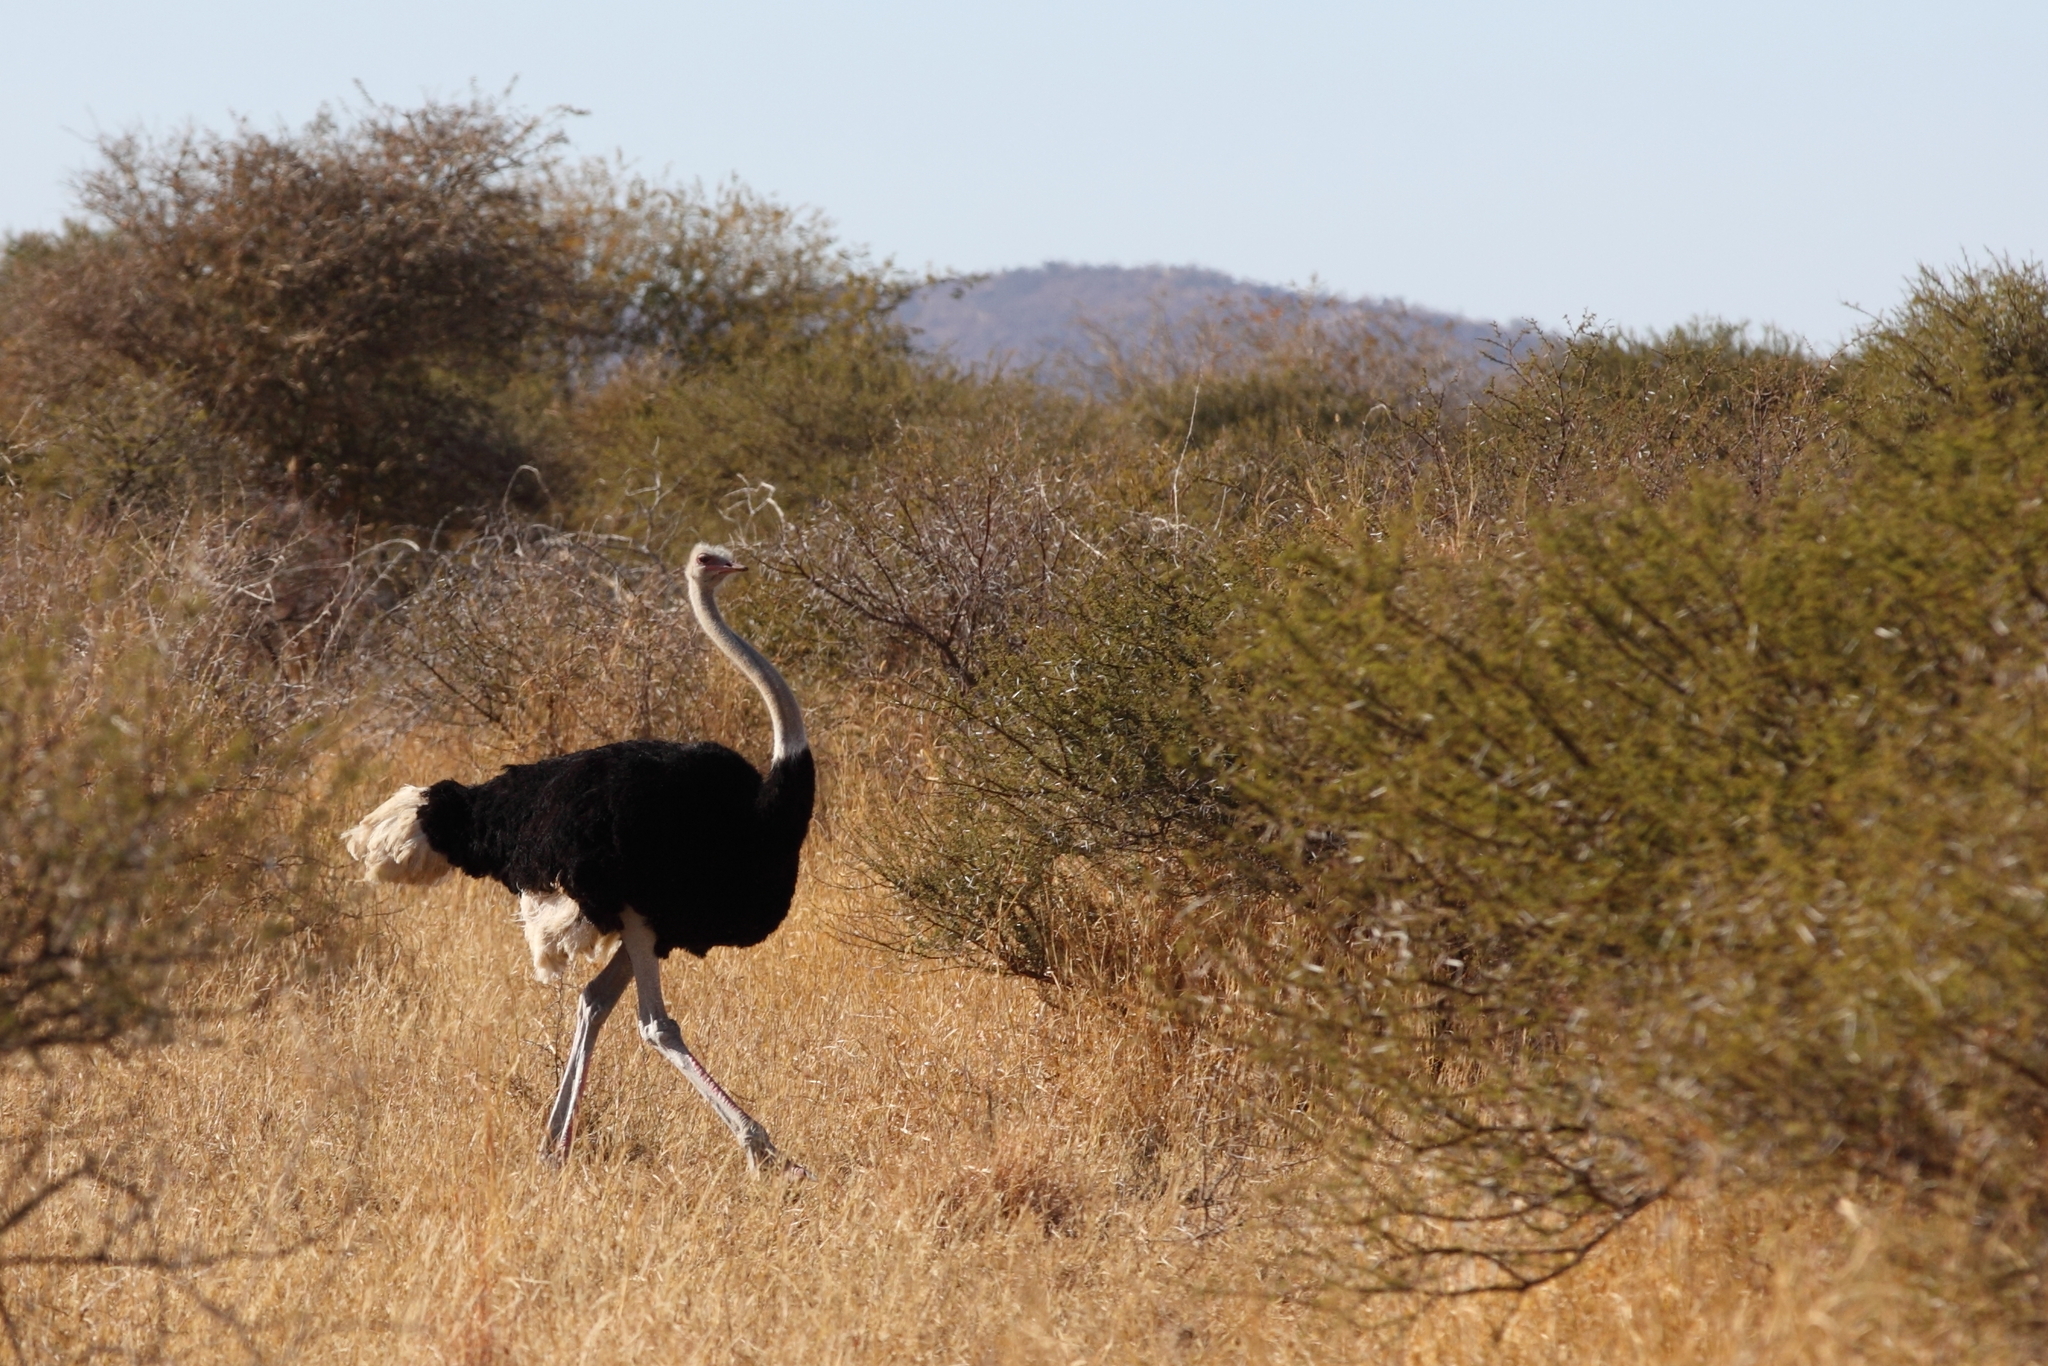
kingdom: Animalia
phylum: Chordata
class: Aves
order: Struthioniformes
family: Struthionidae
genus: Struthio
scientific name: Struthio camelus
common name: Common ostrich
